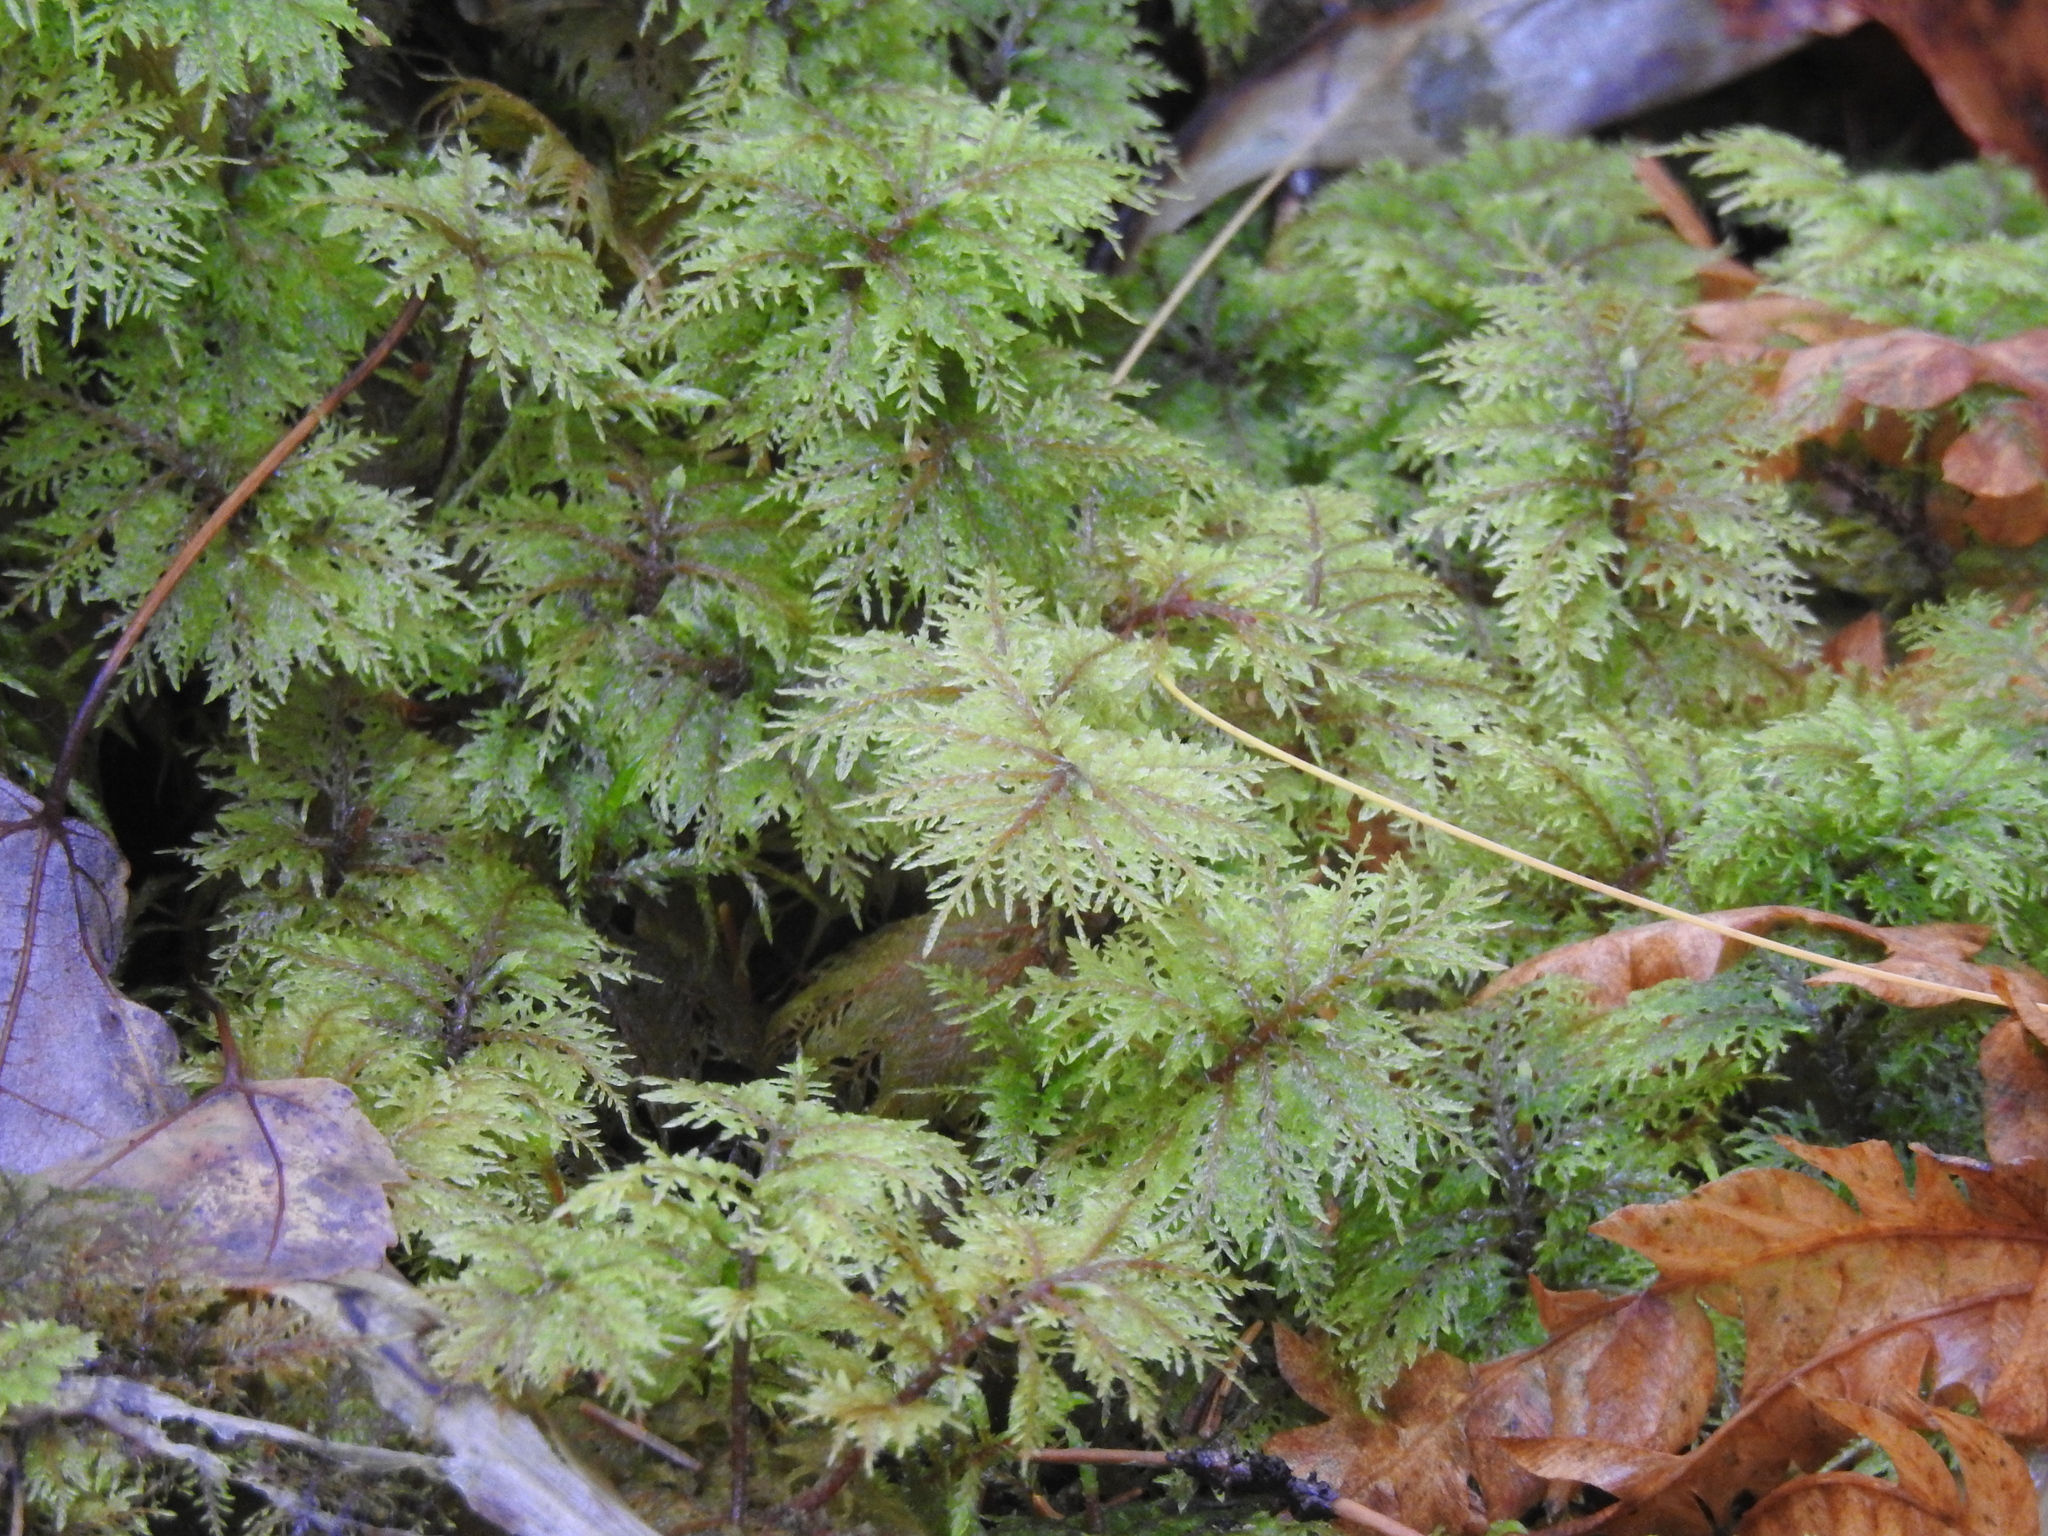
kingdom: Plantae
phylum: Bryophyta
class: Bryopsida
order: Hypnales
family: Hylocomiaceae
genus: Hylocomium
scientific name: Hylocomium splendens
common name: Stairstep moss
